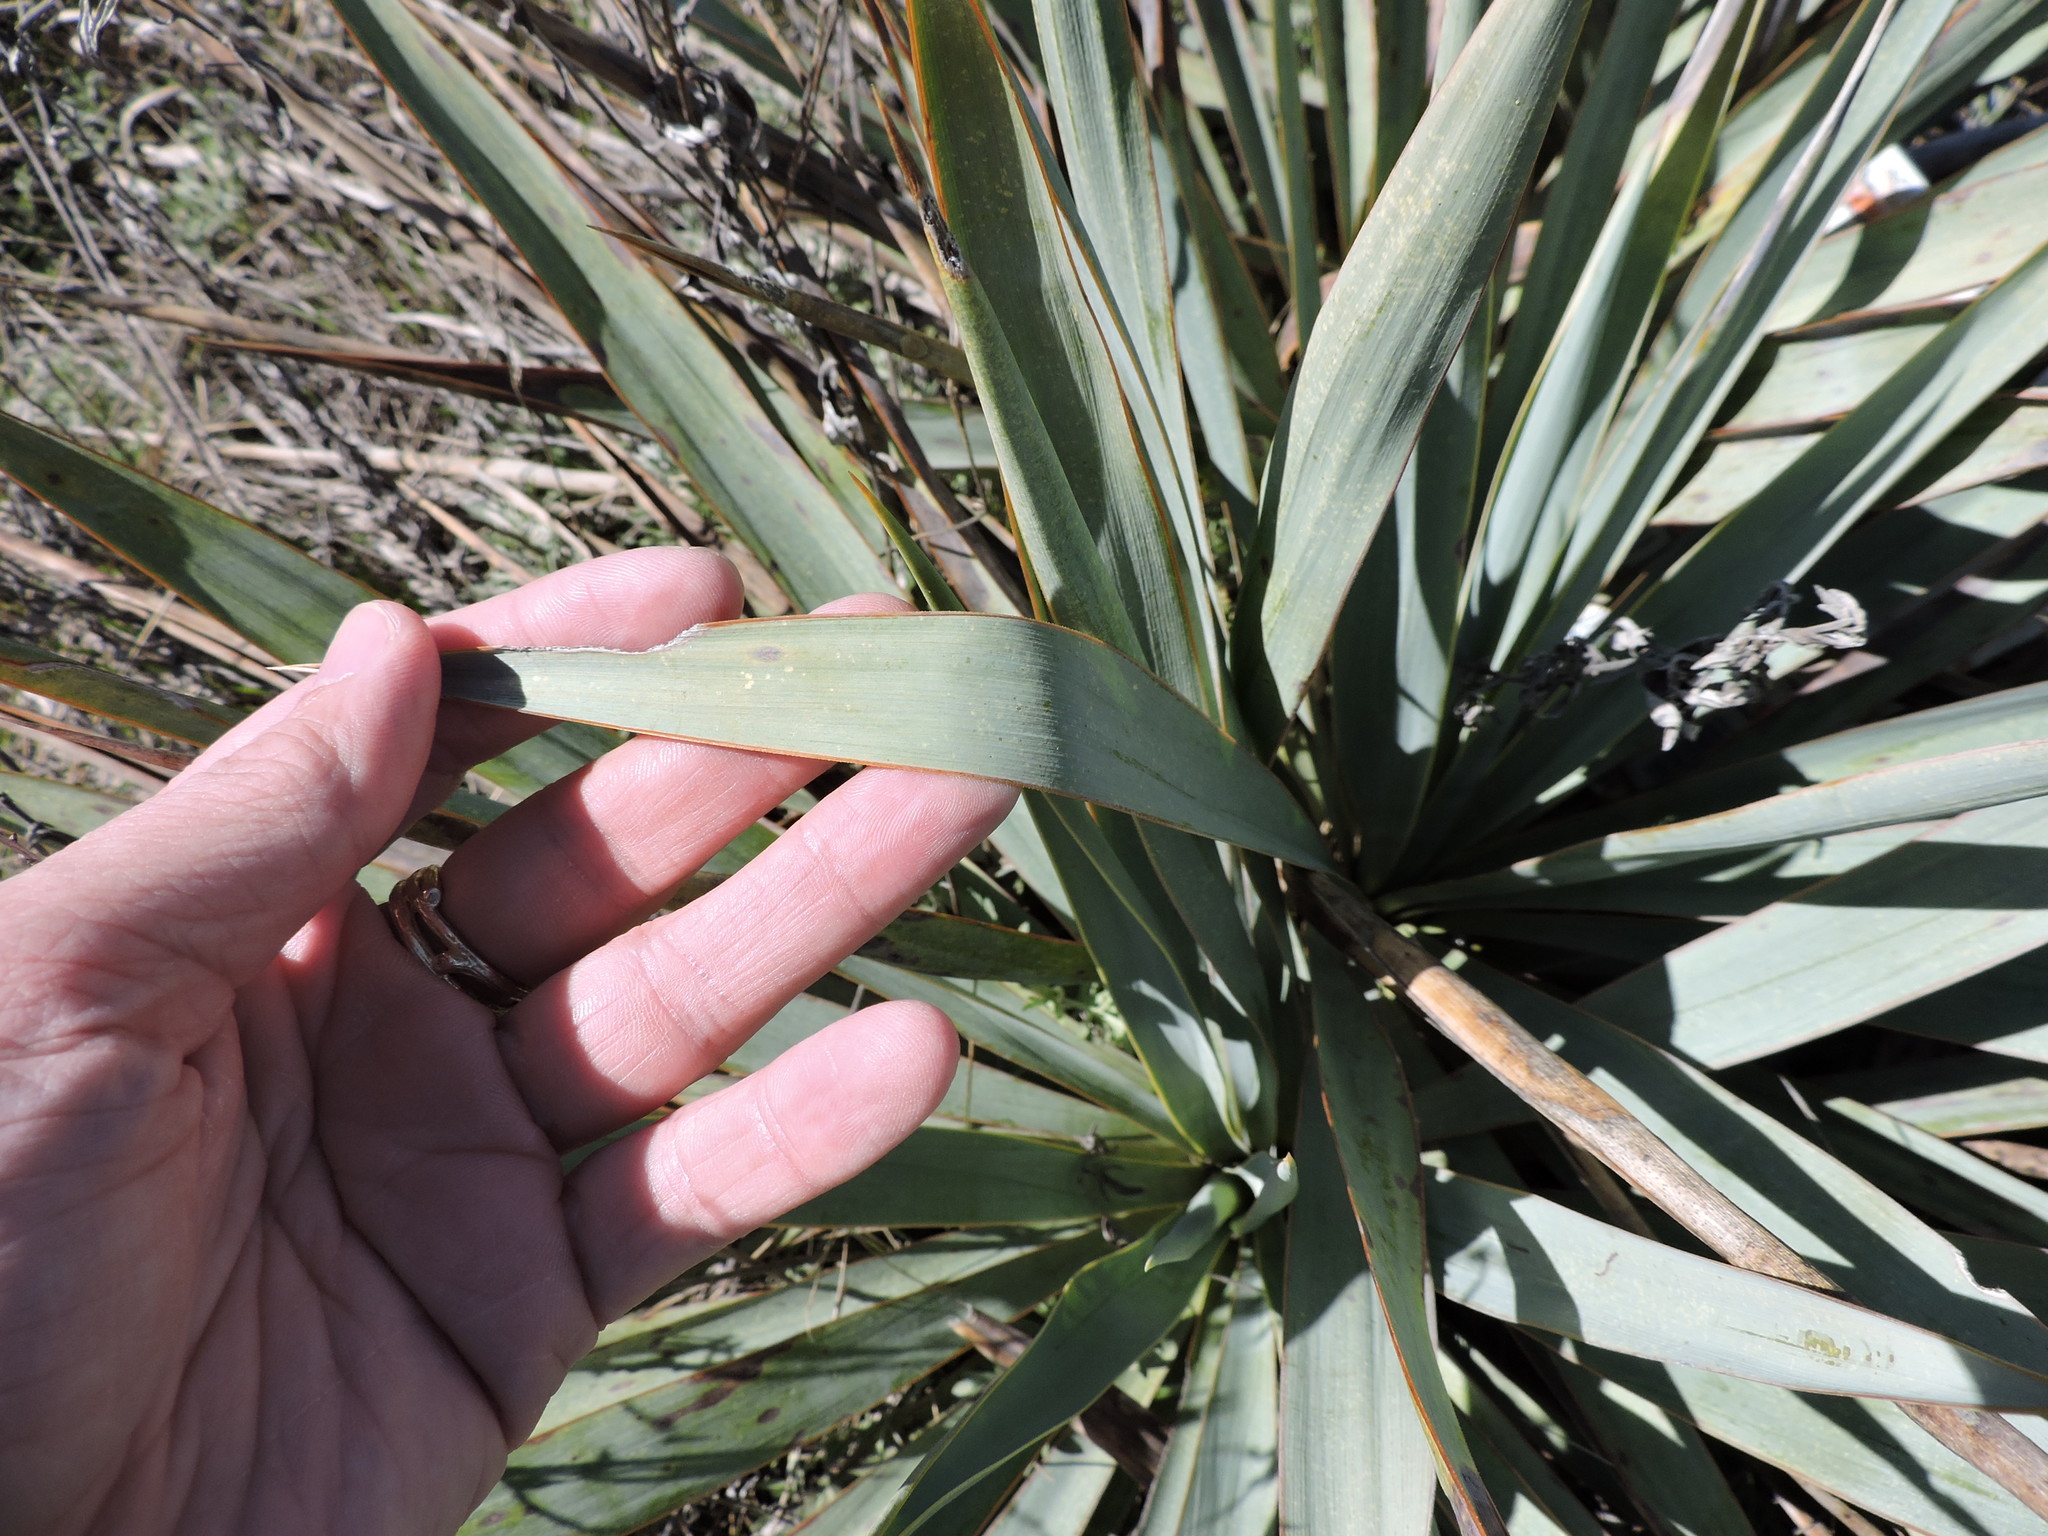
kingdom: Plantae
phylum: Tracheophyta
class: Liliopsida
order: Asparagales
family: Asparagaceae
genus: Yucca
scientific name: Yucca pallida
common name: Pale leaf yucca
